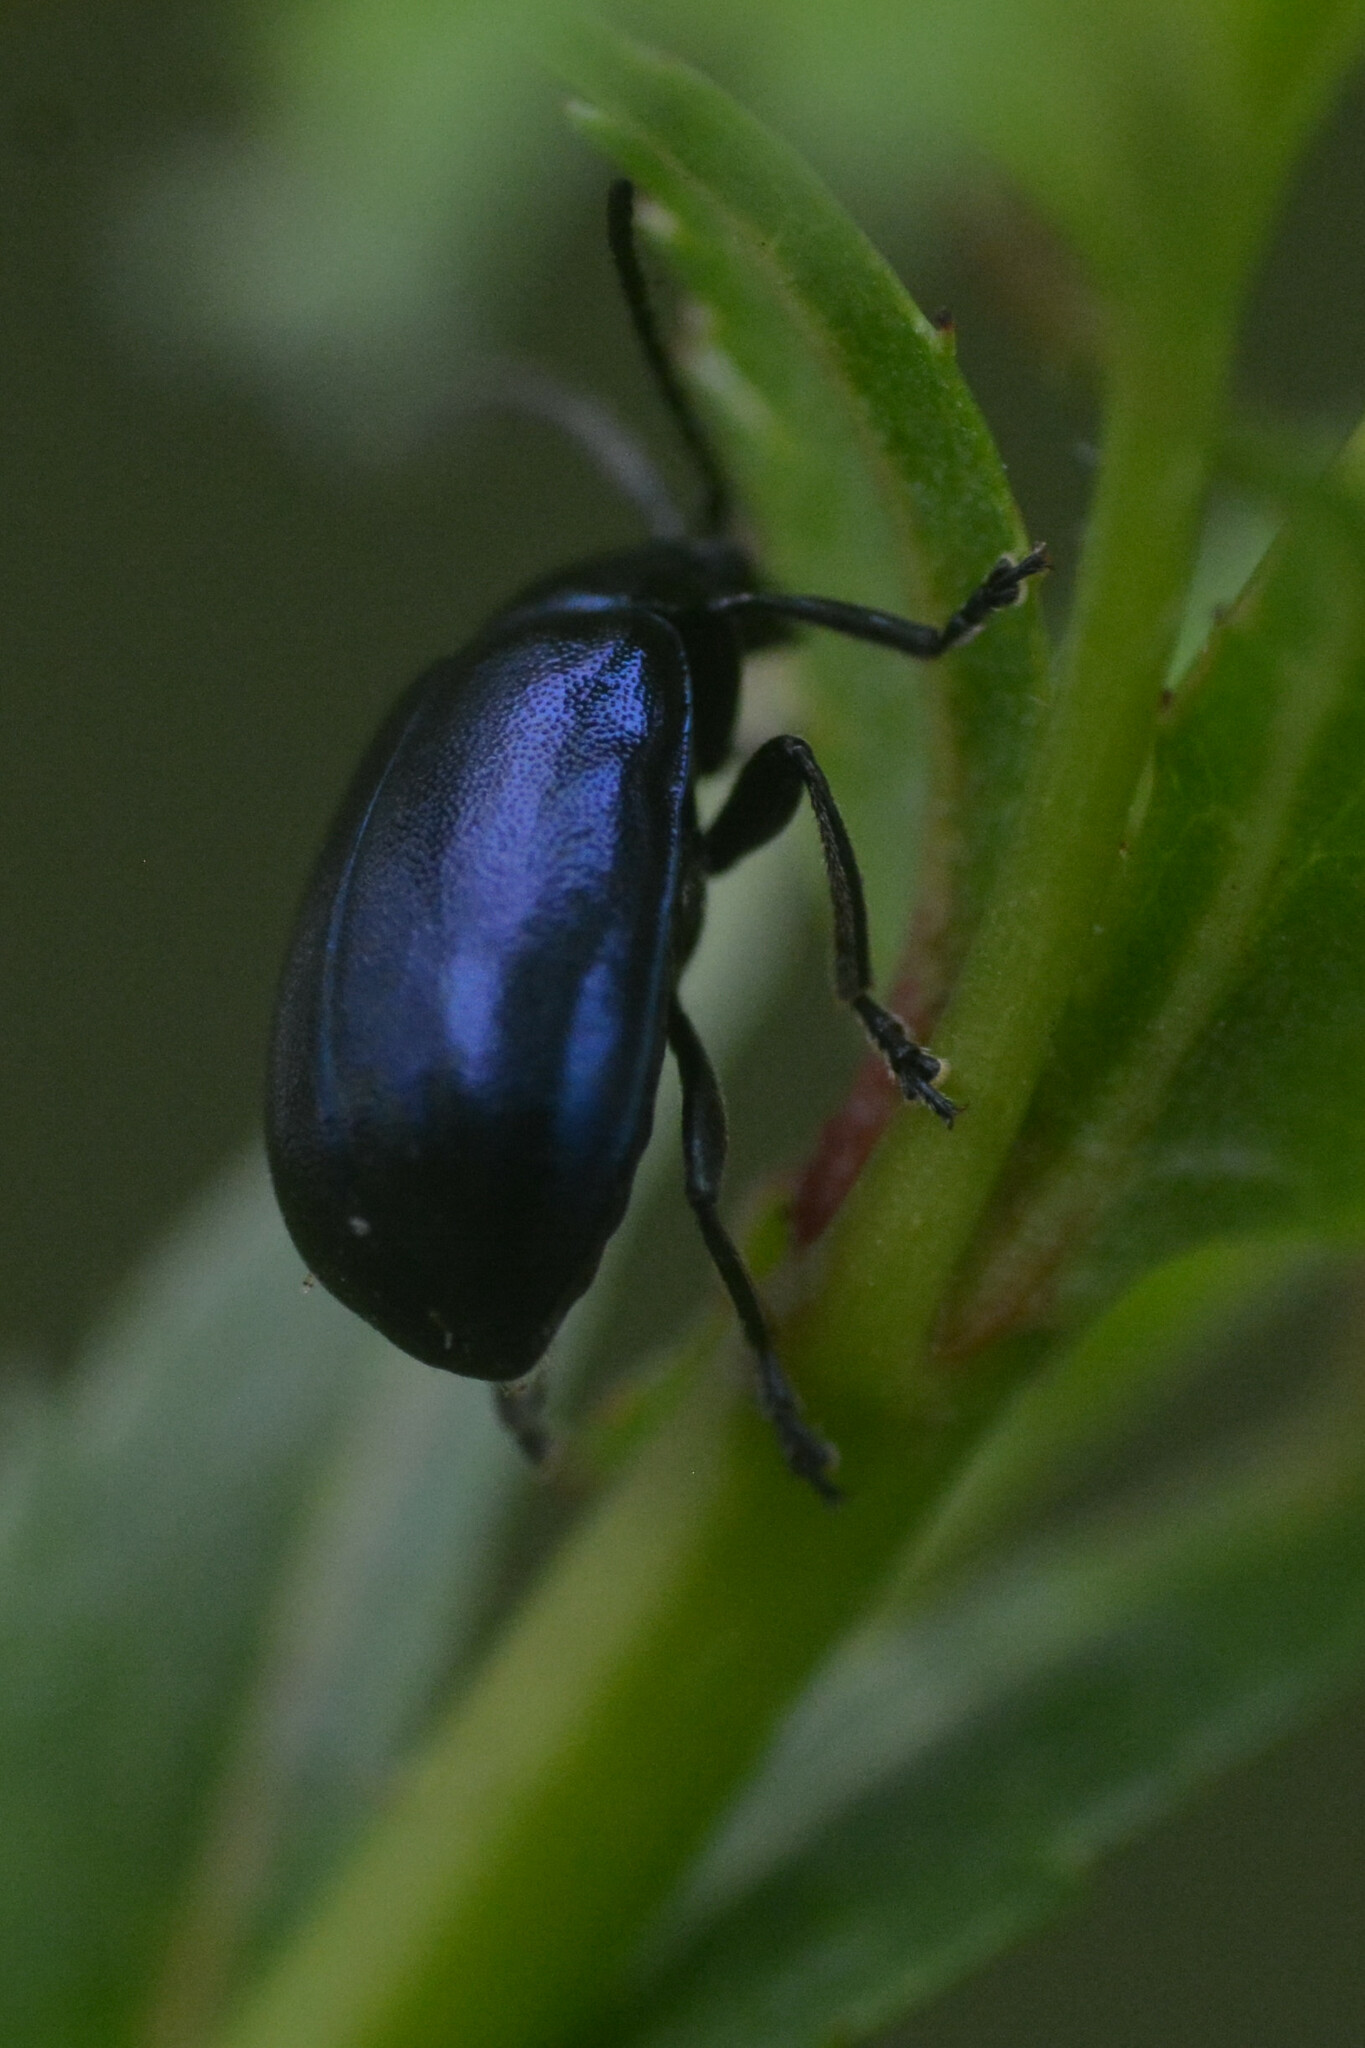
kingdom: Animalia
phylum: Arthropoda
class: Insecta
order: Coleoptera
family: Chrysomelidae
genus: Agelastica
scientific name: Agelastica alni
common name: Alder leaf beetle
